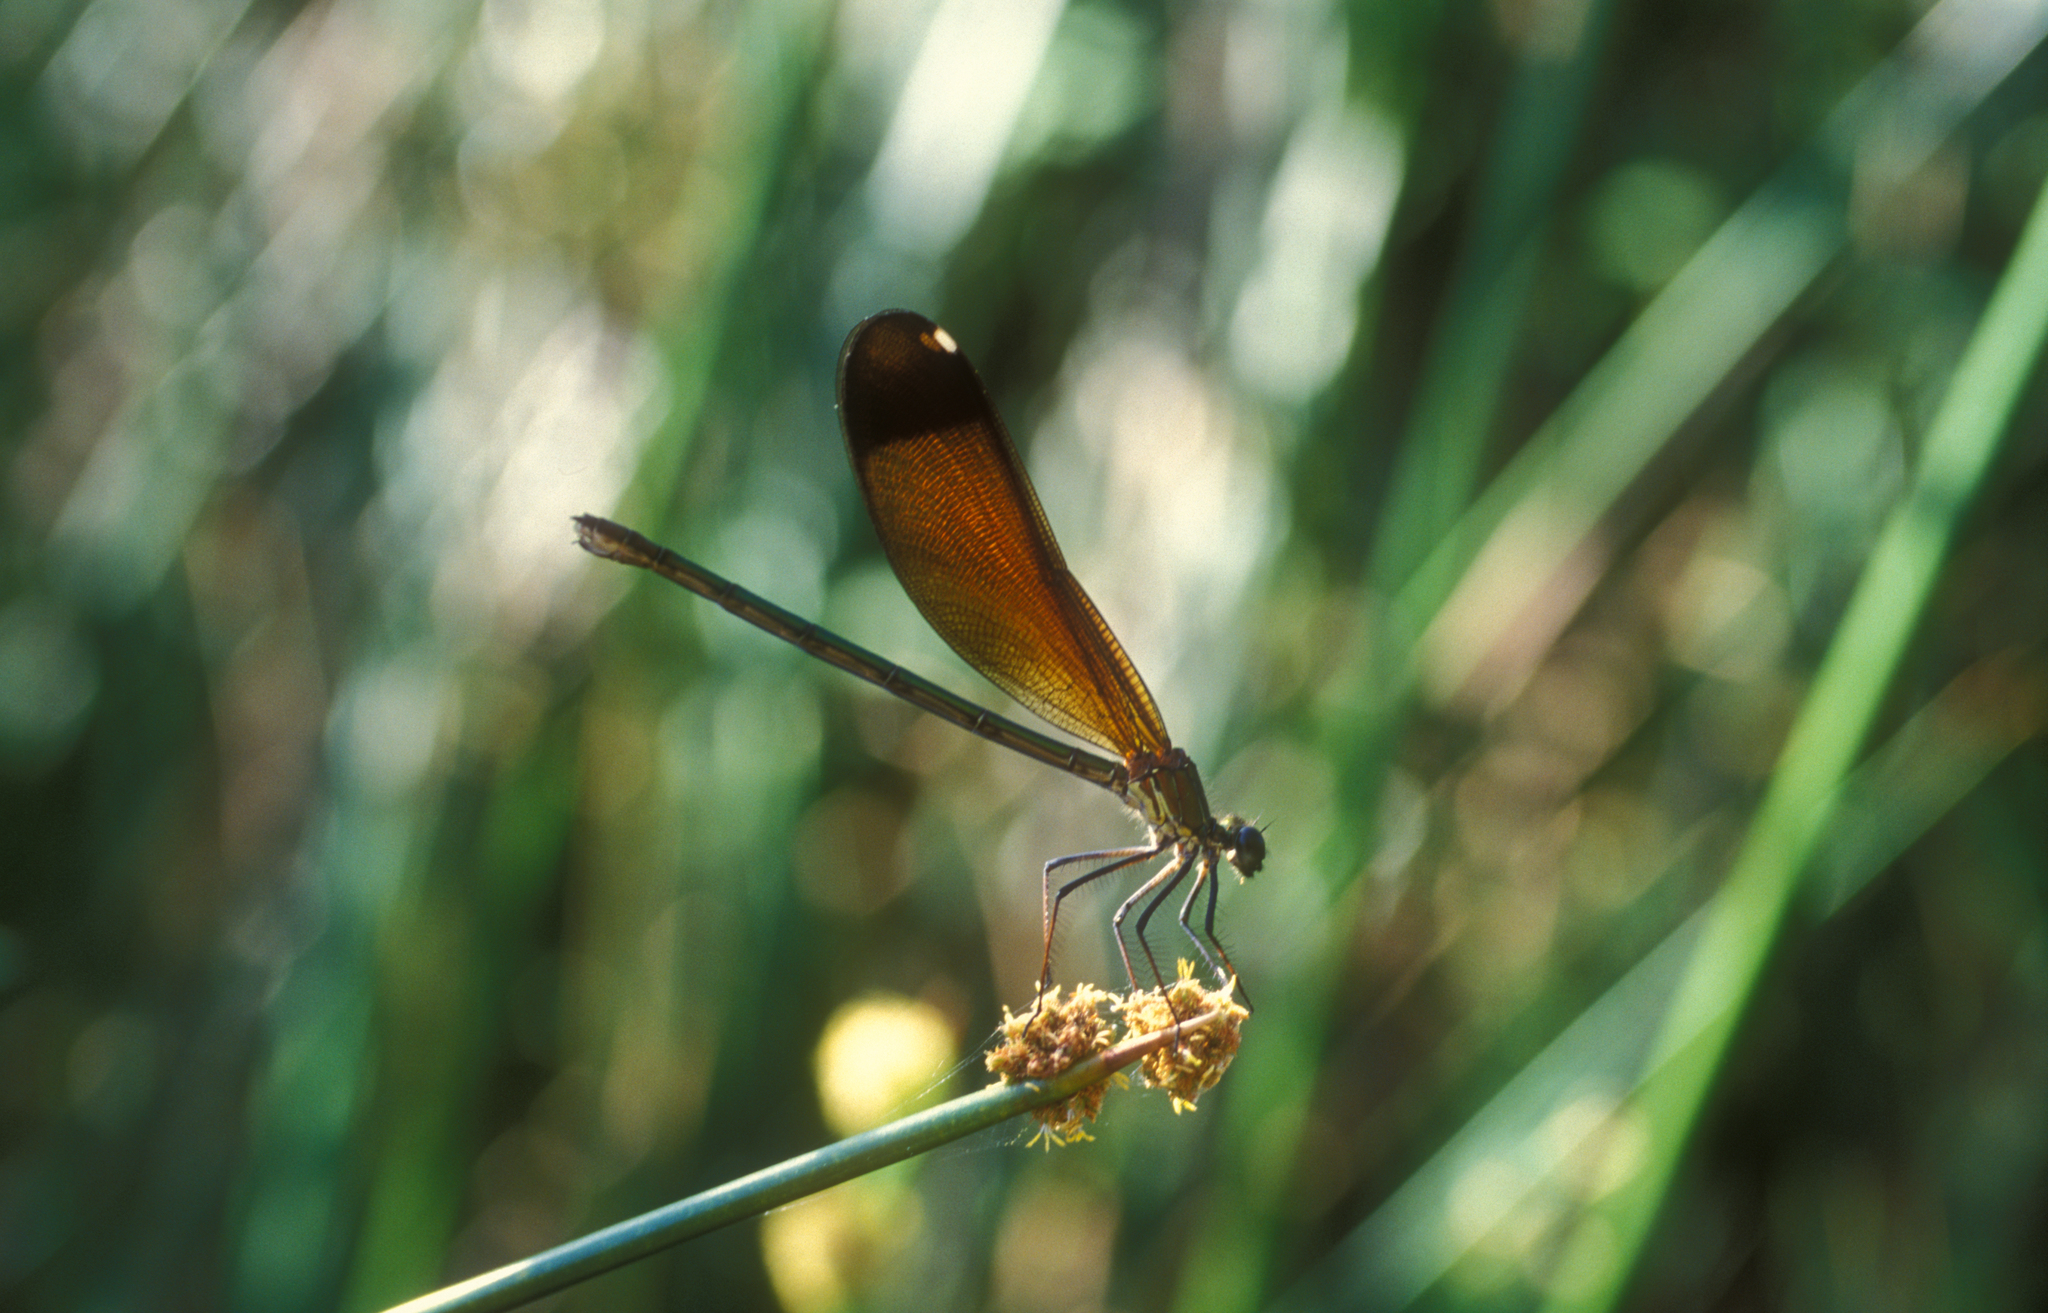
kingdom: Animalia
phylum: Arthropoda
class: Insecta
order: Odonata
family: Calopterygidae
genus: Calopteryx
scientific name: Calopteryx haemorrhoidalis
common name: Copper demoiselle
